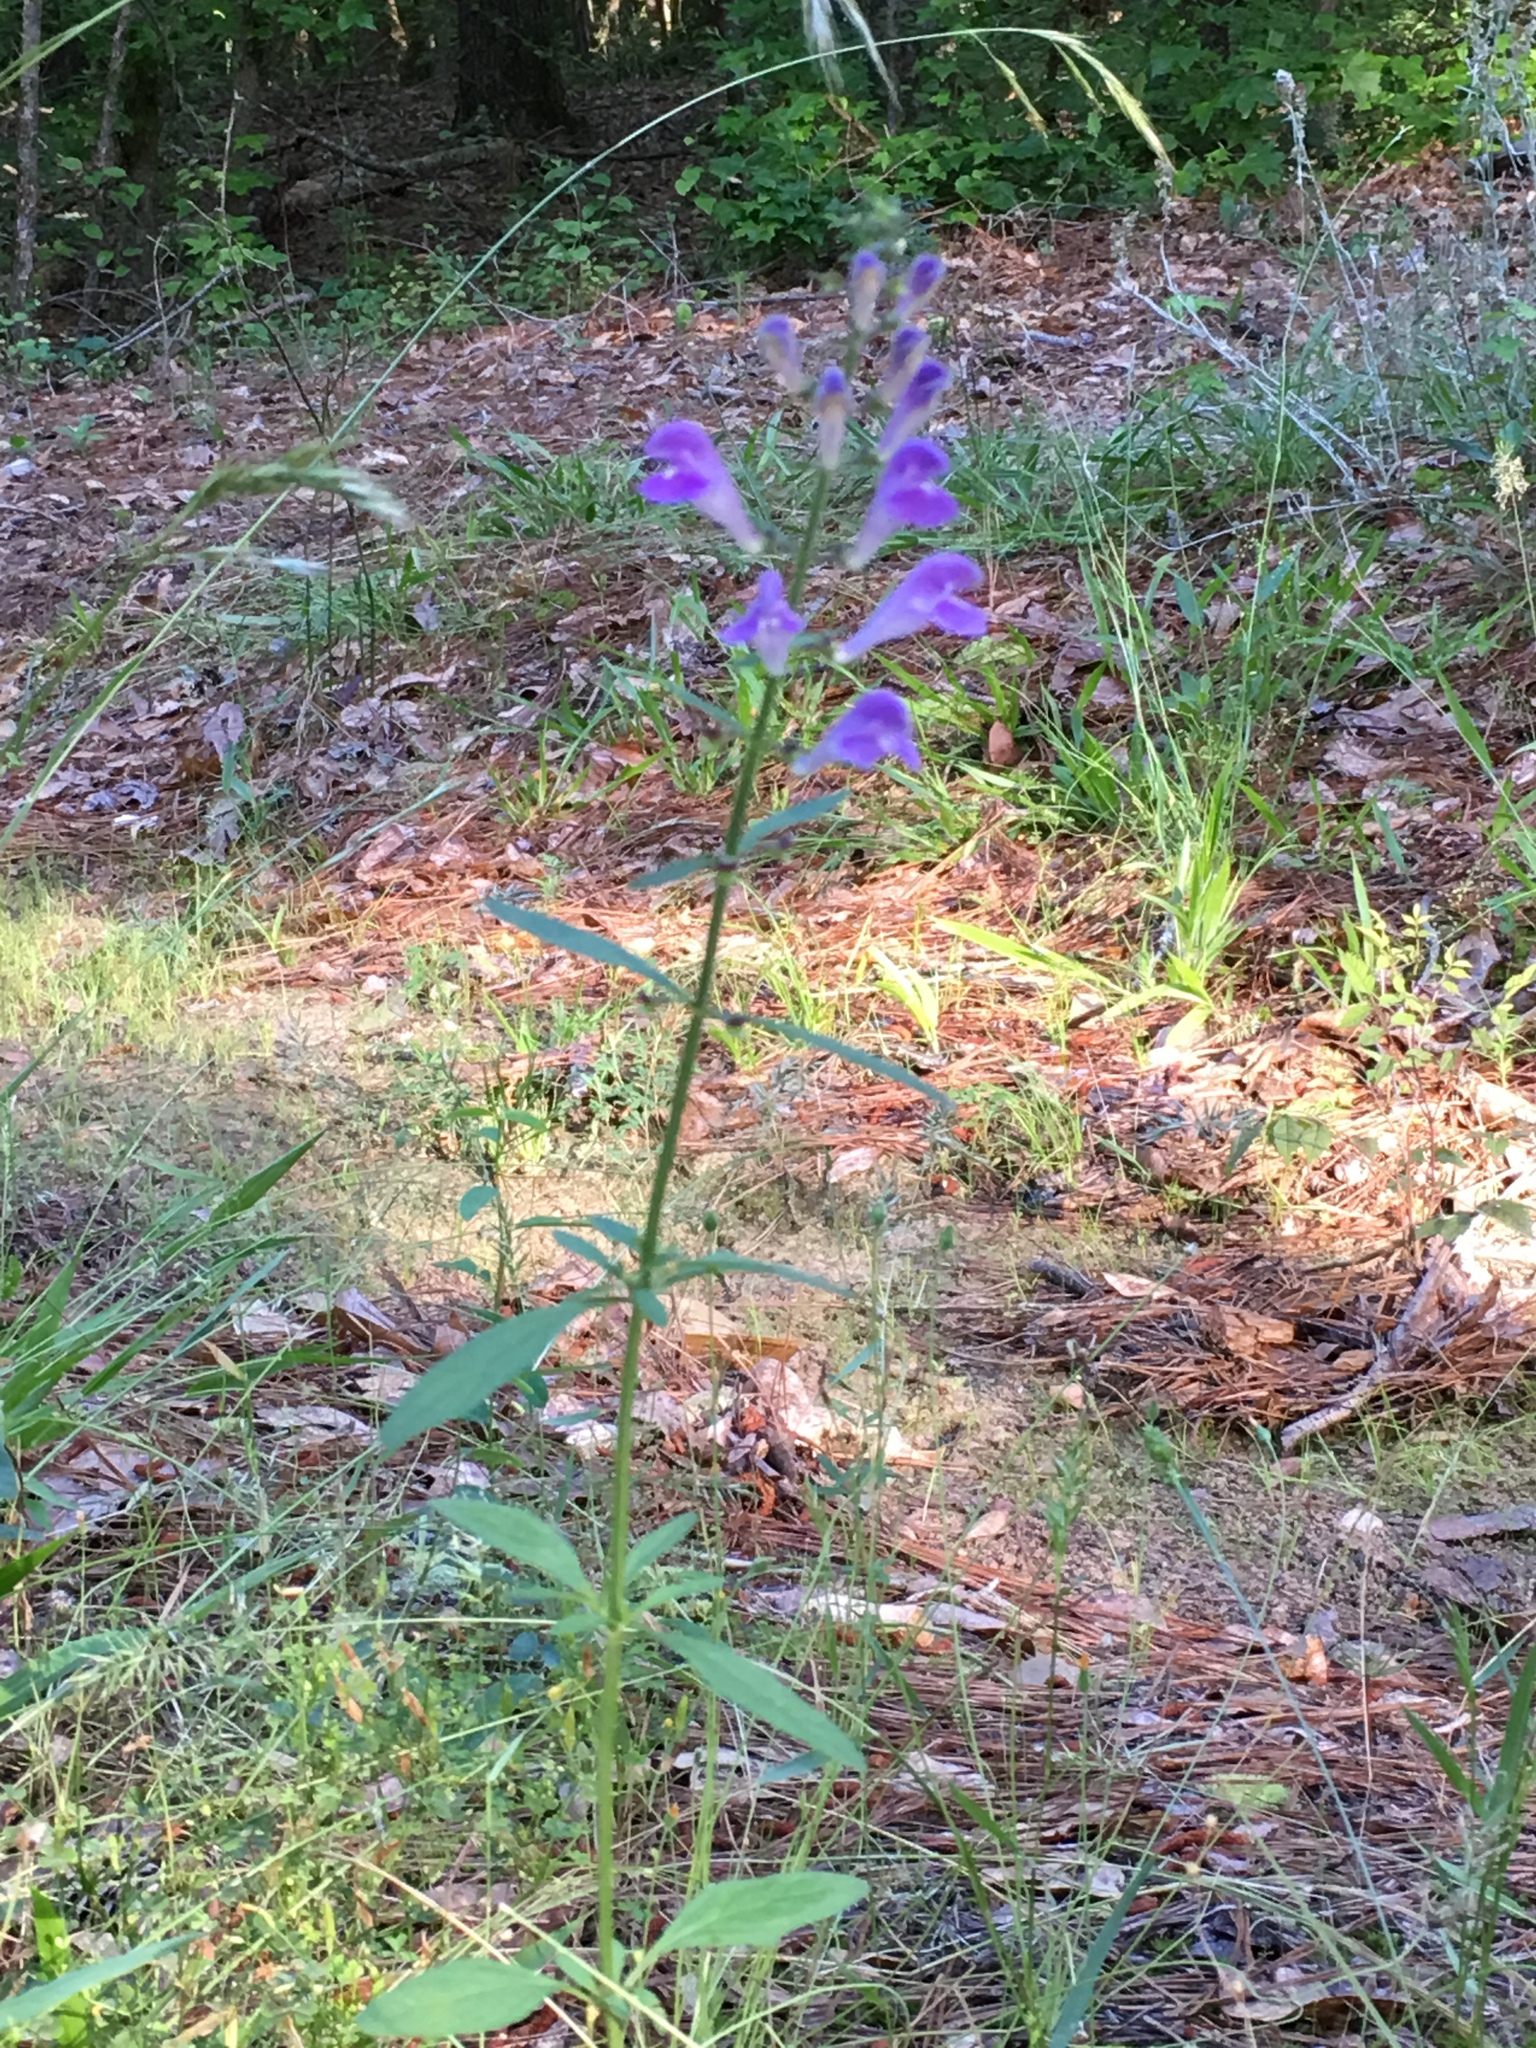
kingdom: Plantae
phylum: Tracheophyta
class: Magnoliopsida
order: Lamiales
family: Lamiaceae
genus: Scutellaria
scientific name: Scutellaria integrifolia
